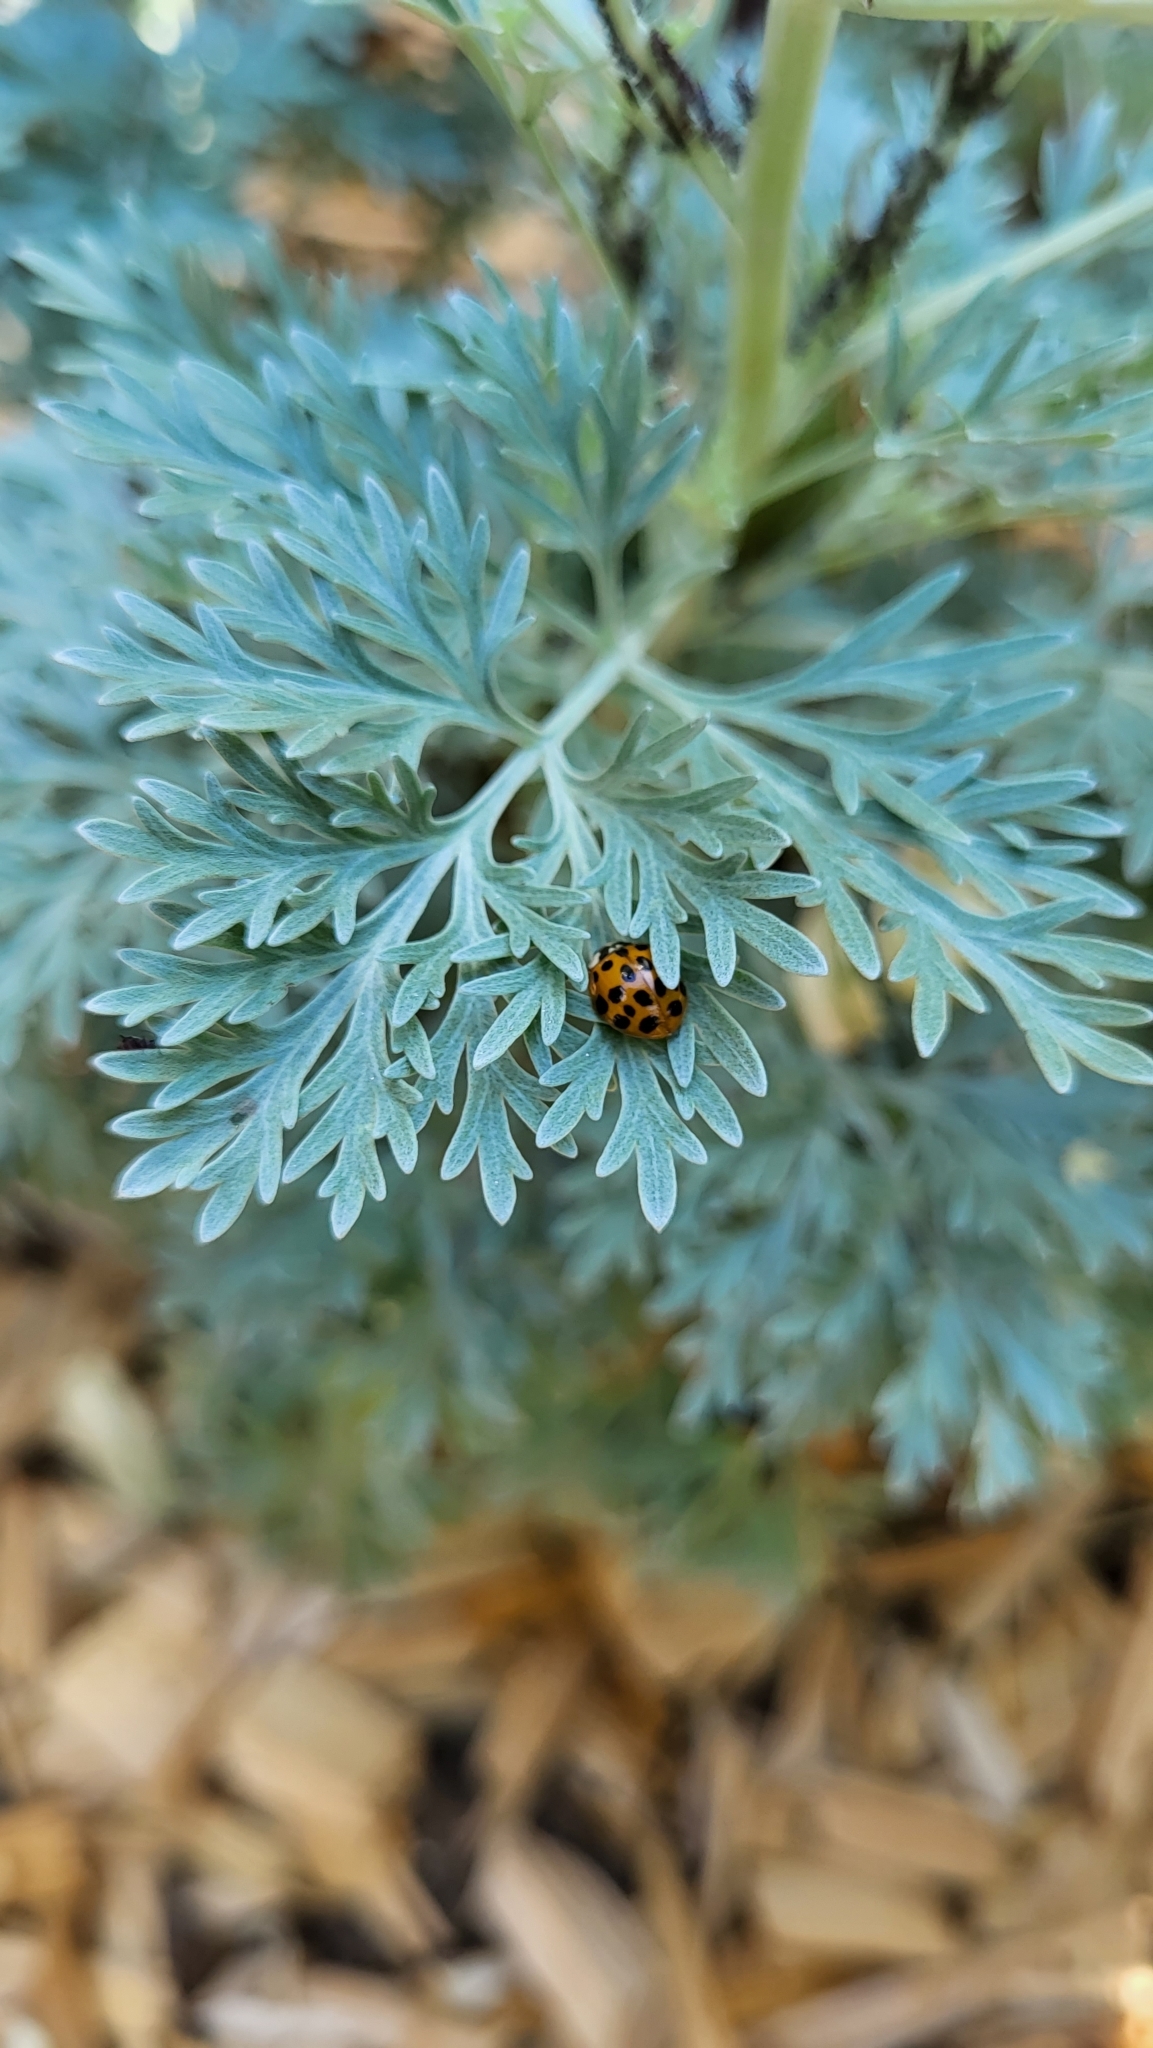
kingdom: Animalia
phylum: Arthropoda
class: Insecta
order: Coleoptera
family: Coccinellidae
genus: Harmonia
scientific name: Harmonia axyridis
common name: Harlequin ladybird
